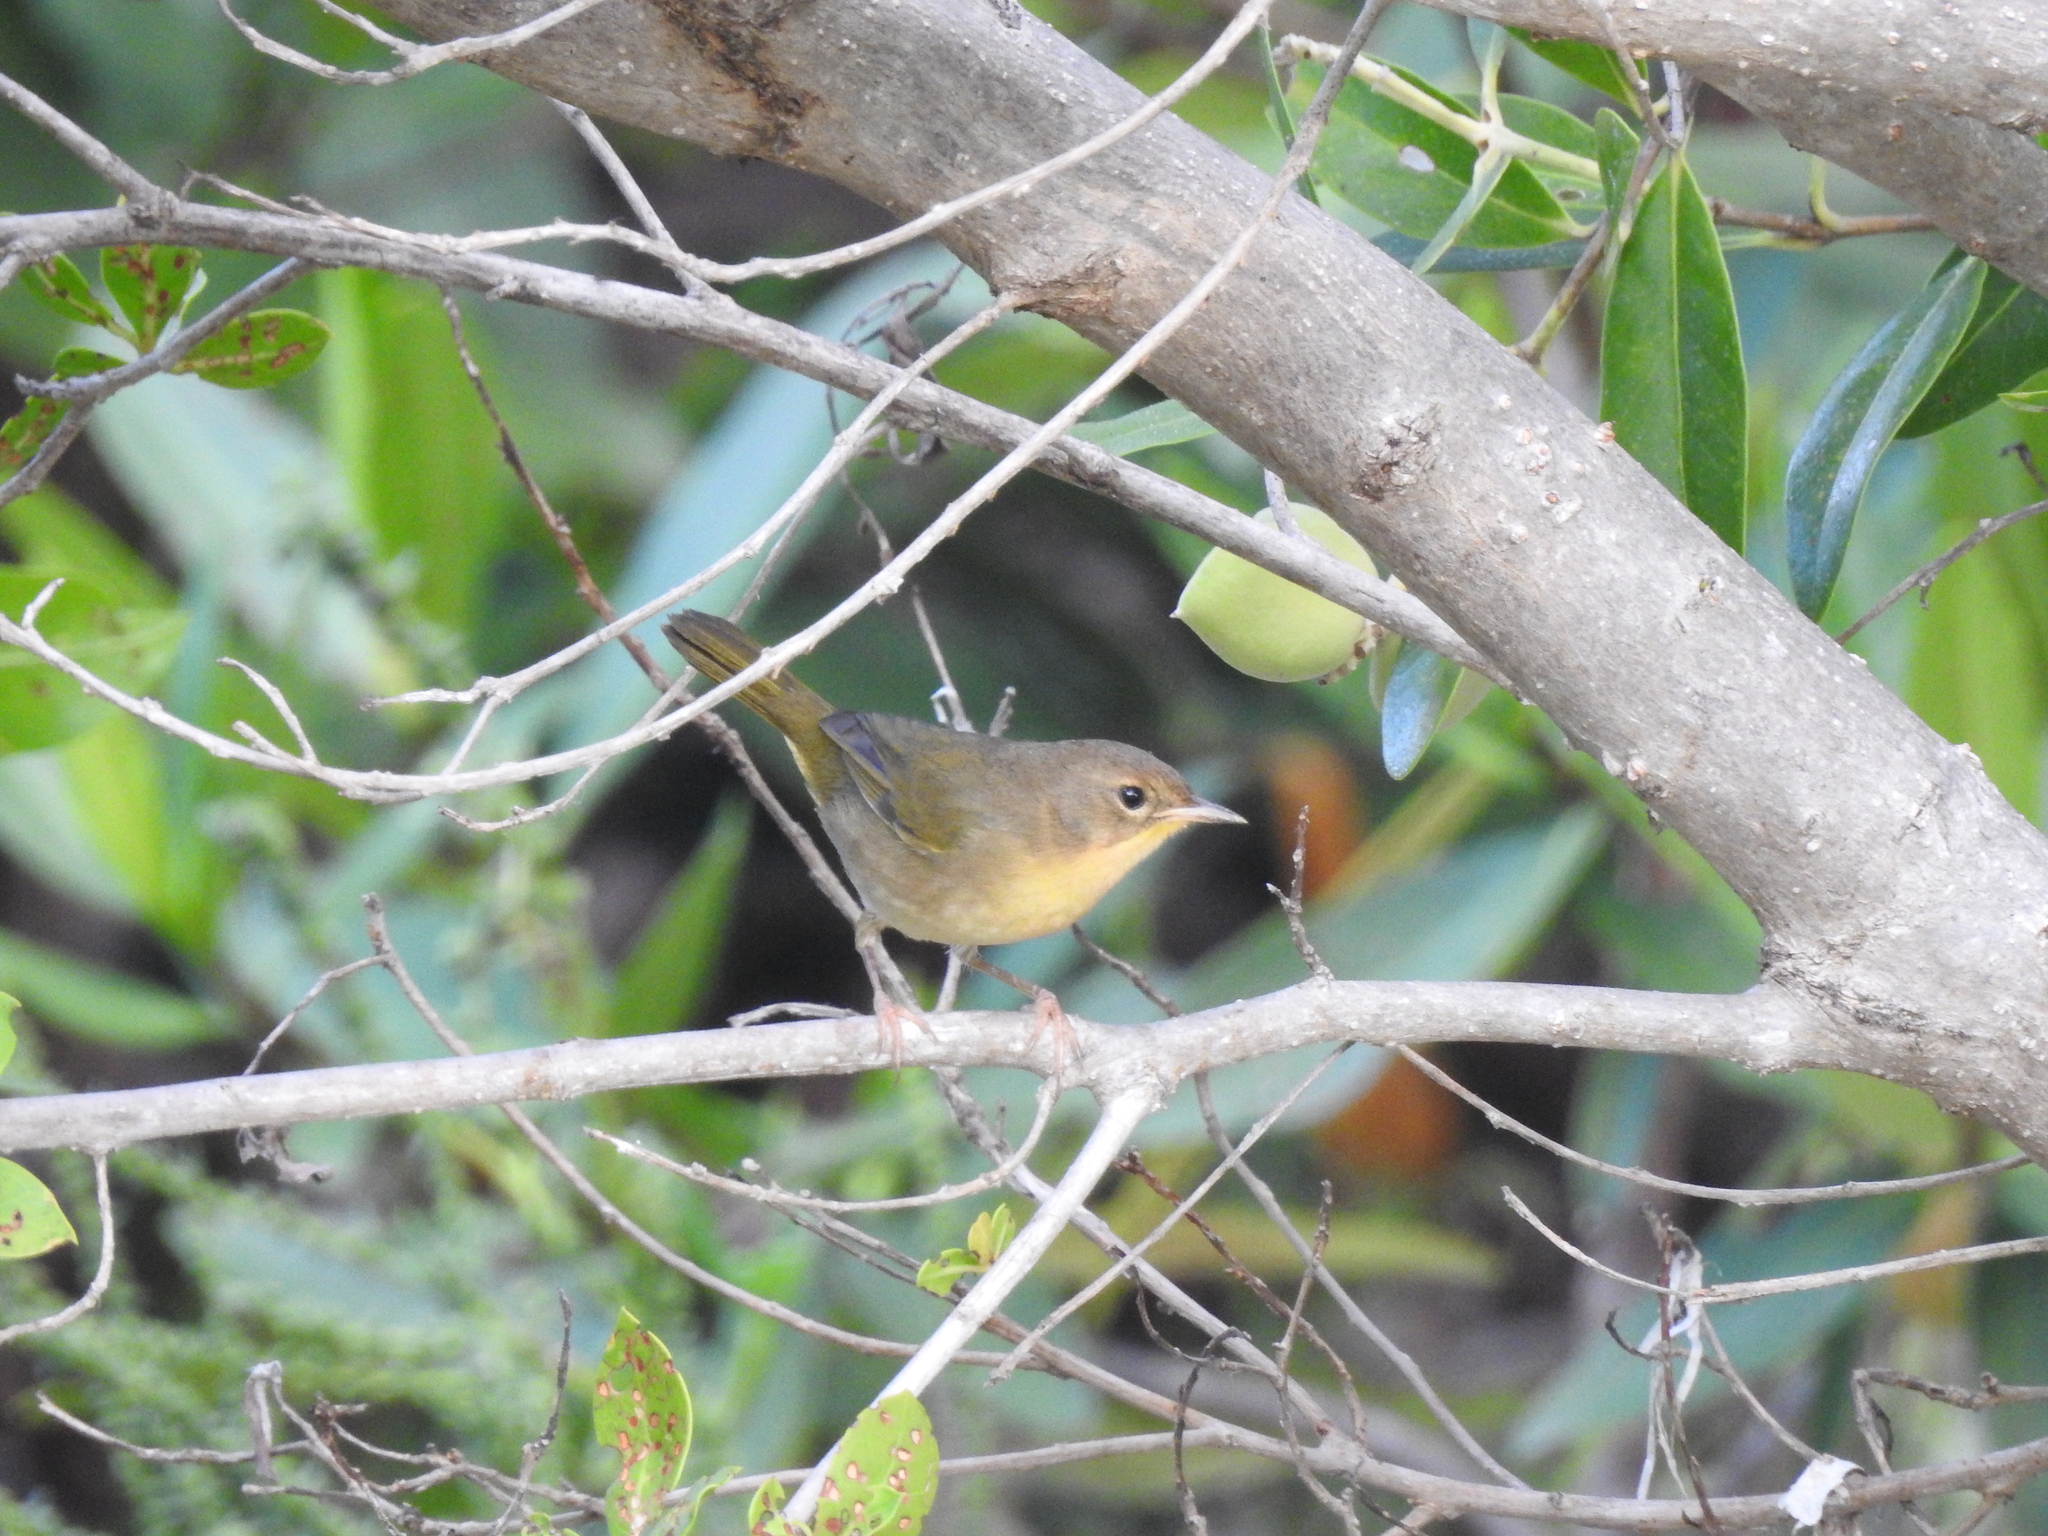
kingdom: Animalia
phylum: Chordata
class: Aves
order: Passeriformes
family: Parulidae
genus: Geothlypis
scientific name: Geothlypis trichas
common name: Common yellowthroat
